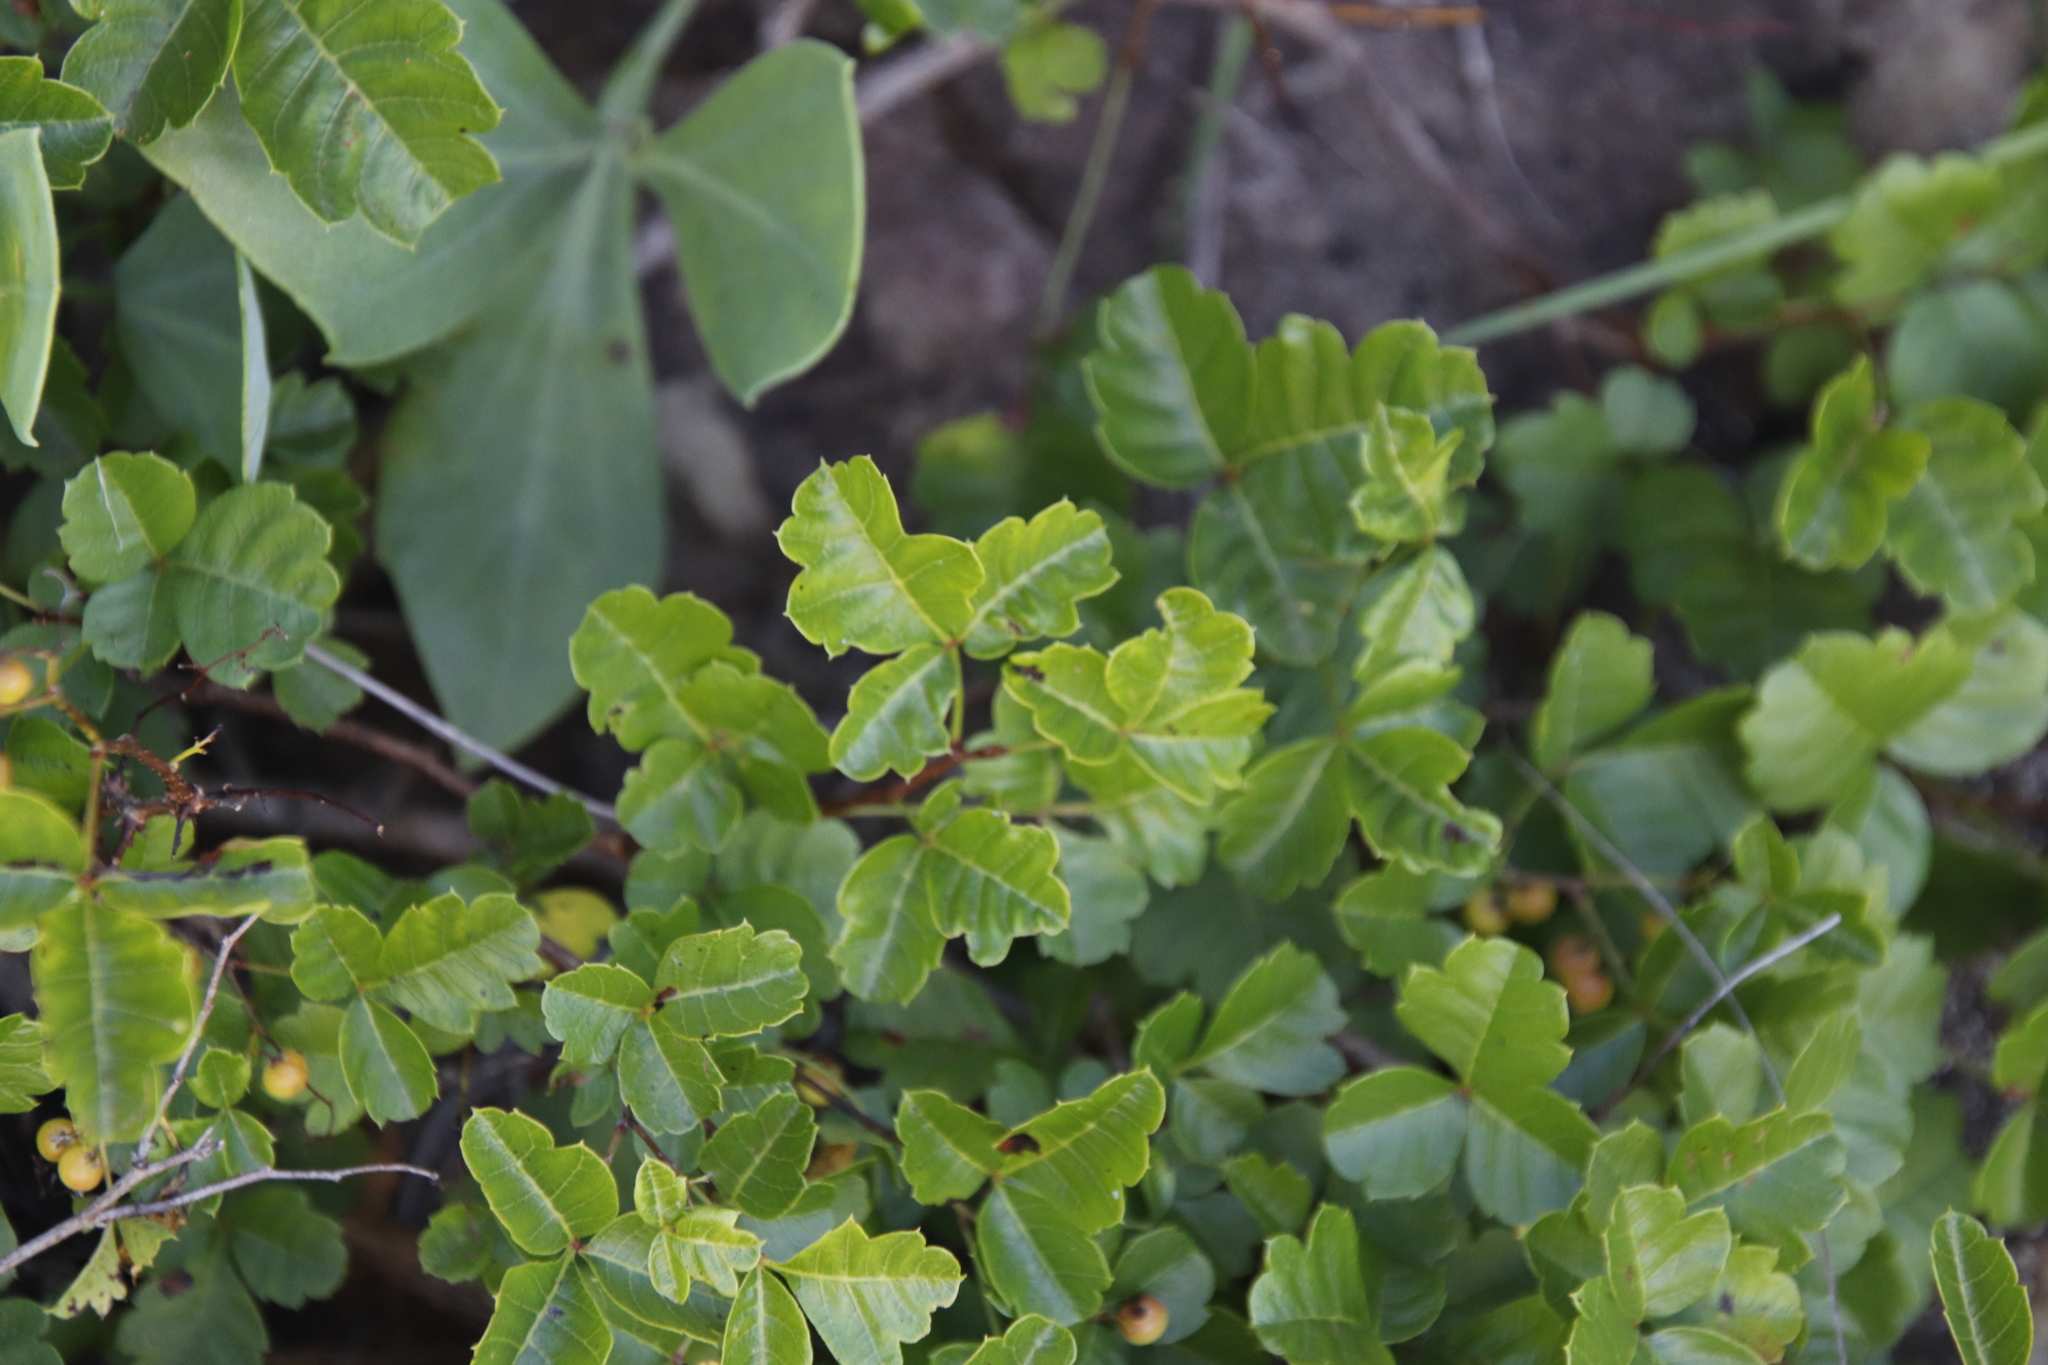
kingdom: Plantae
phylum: Tracheophyta
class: Magnoliopsida
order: Sapindales
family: Anacardiaceae
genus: Searsia
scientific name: Searsia dentata
